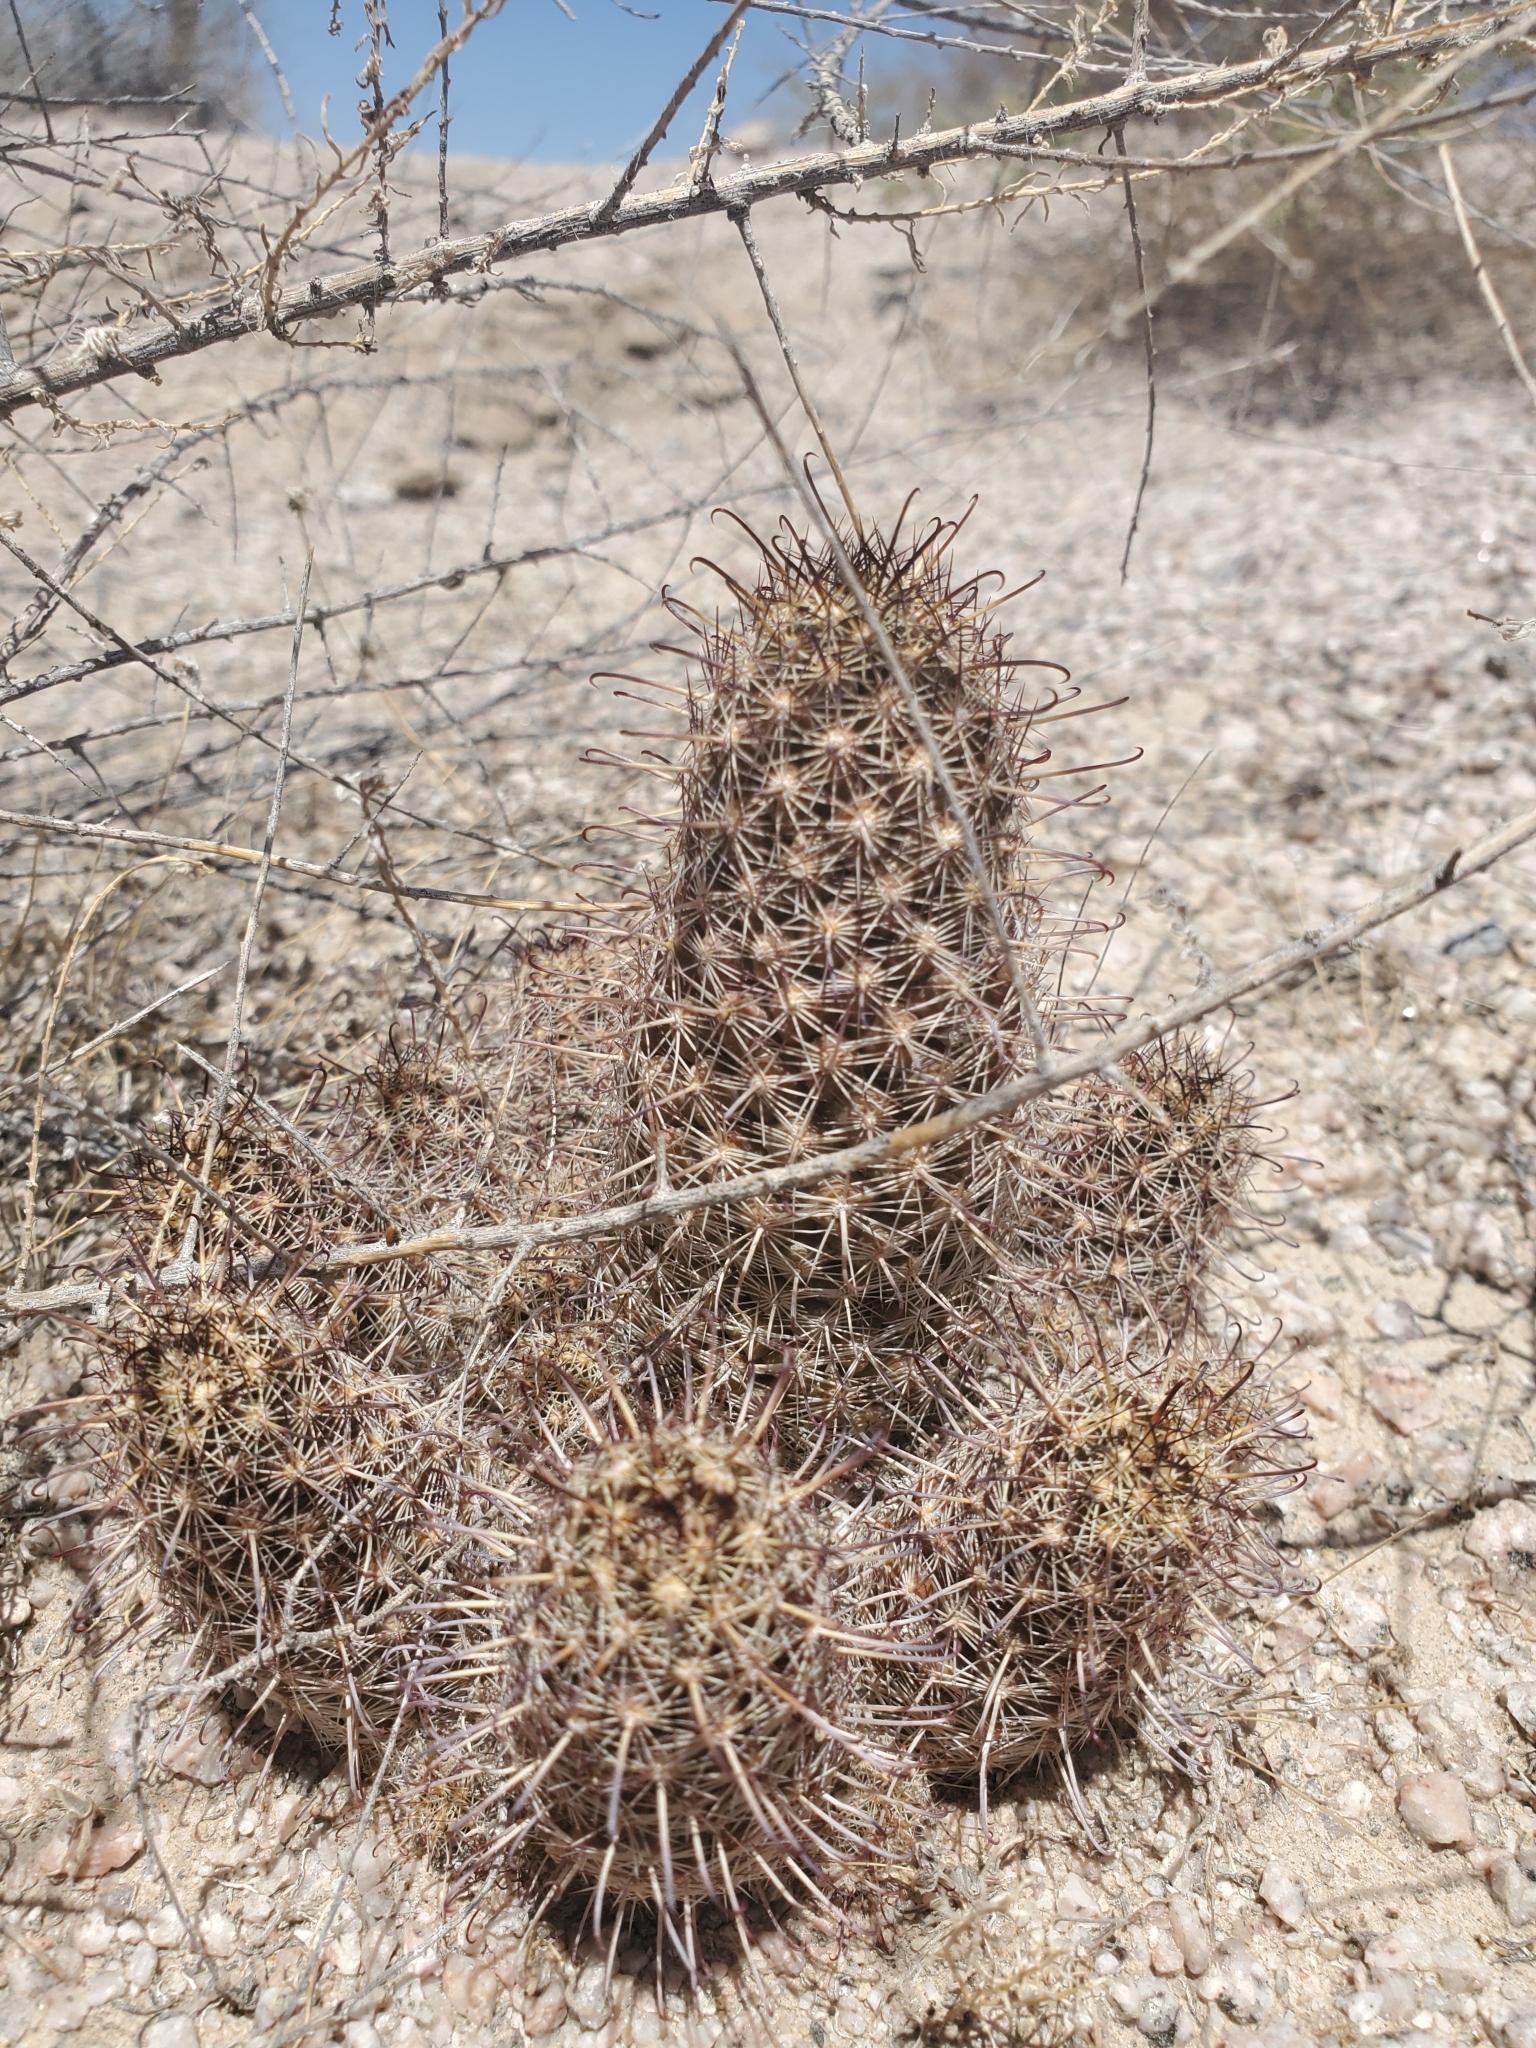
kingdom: Plantae
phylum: Tracheophyta
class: Magnoliopsida
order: Caryophyllales
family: Cactaceae
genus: Cochemiea
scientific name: Cochemiea thornberi
